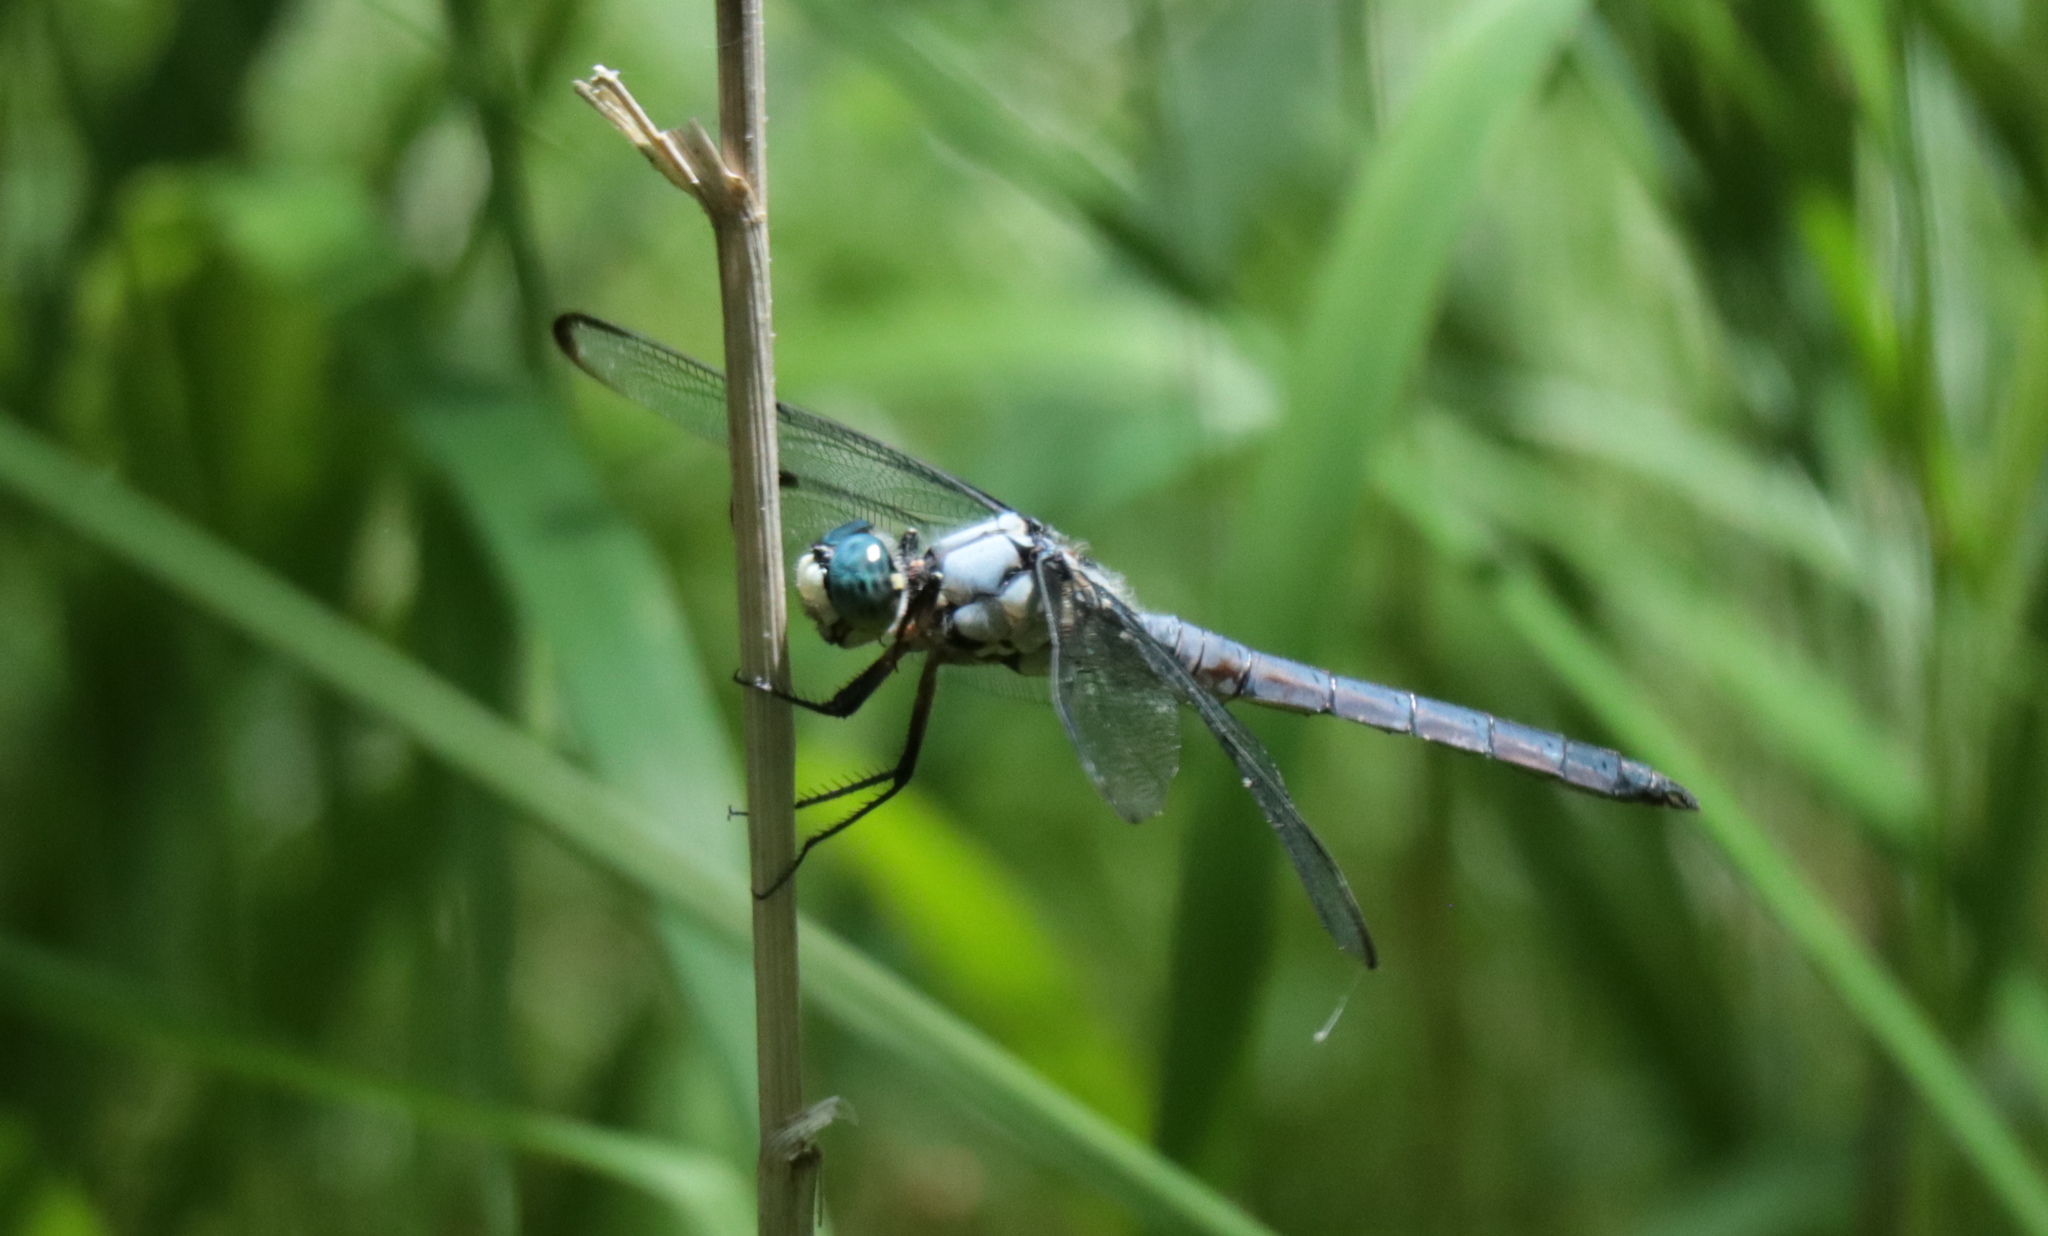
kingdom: Animalia
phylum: Arthropoda
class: Insecta
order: Odonata
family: Libellulidae
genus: Libellula
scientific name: Libellula vibrans
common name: Great blue skimmer
